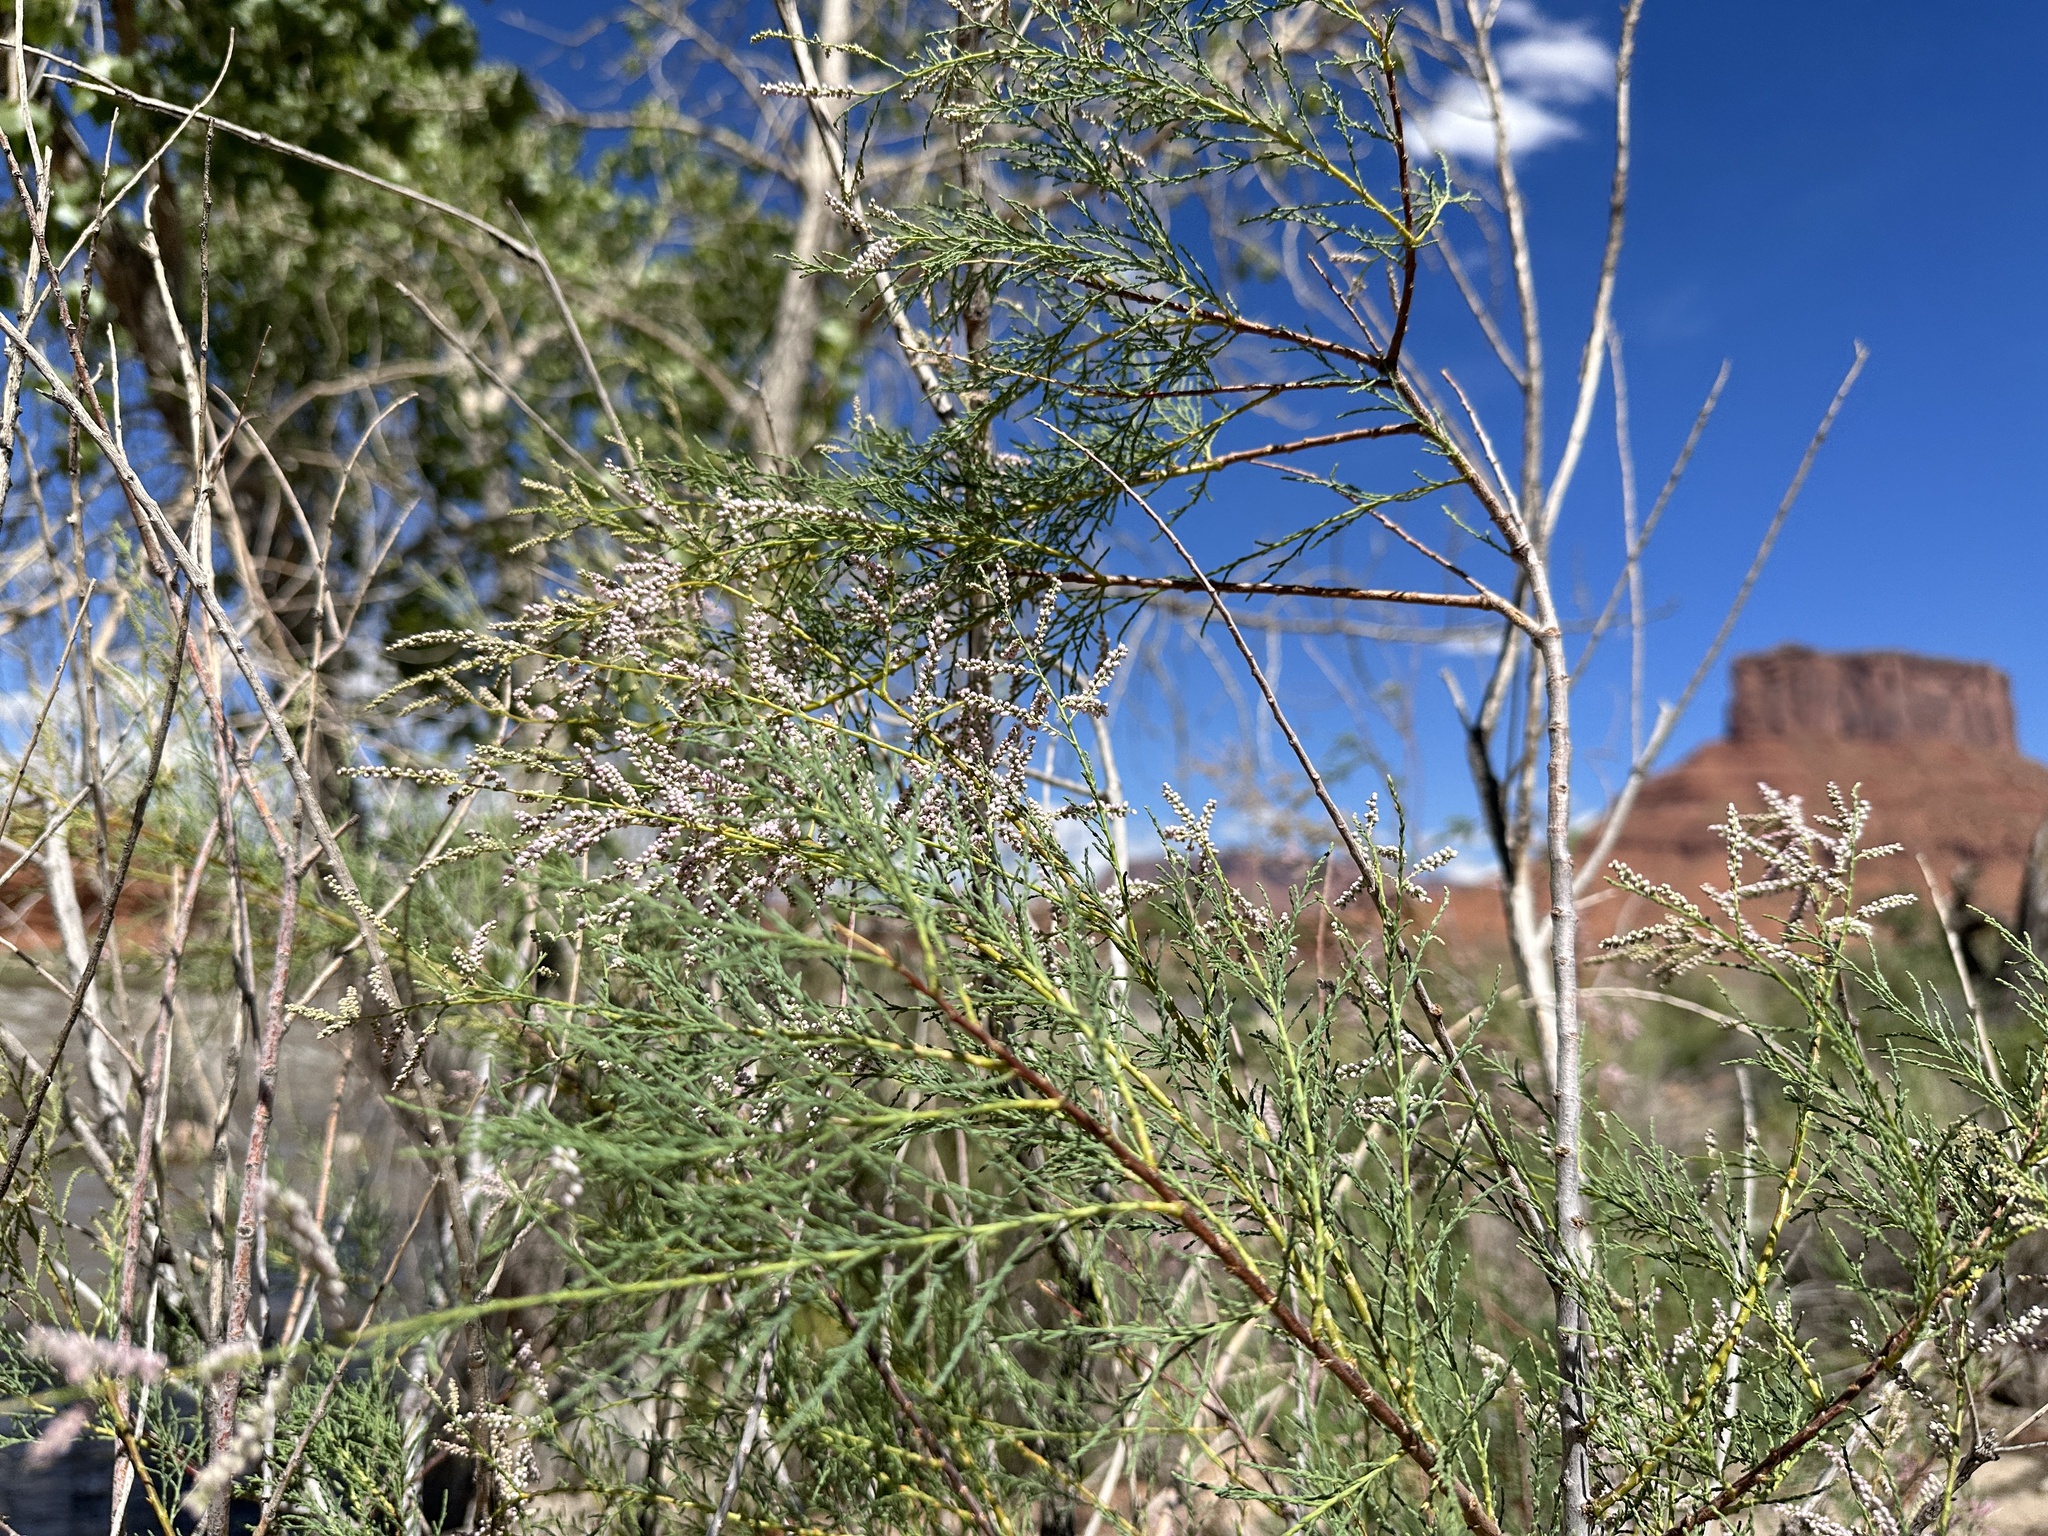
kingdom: Plantae
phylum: Tracheophyta
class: Magnoliopsida
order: Caryophyllales
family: Tamaricaceae
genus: Tamarix
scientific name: Tamarix
